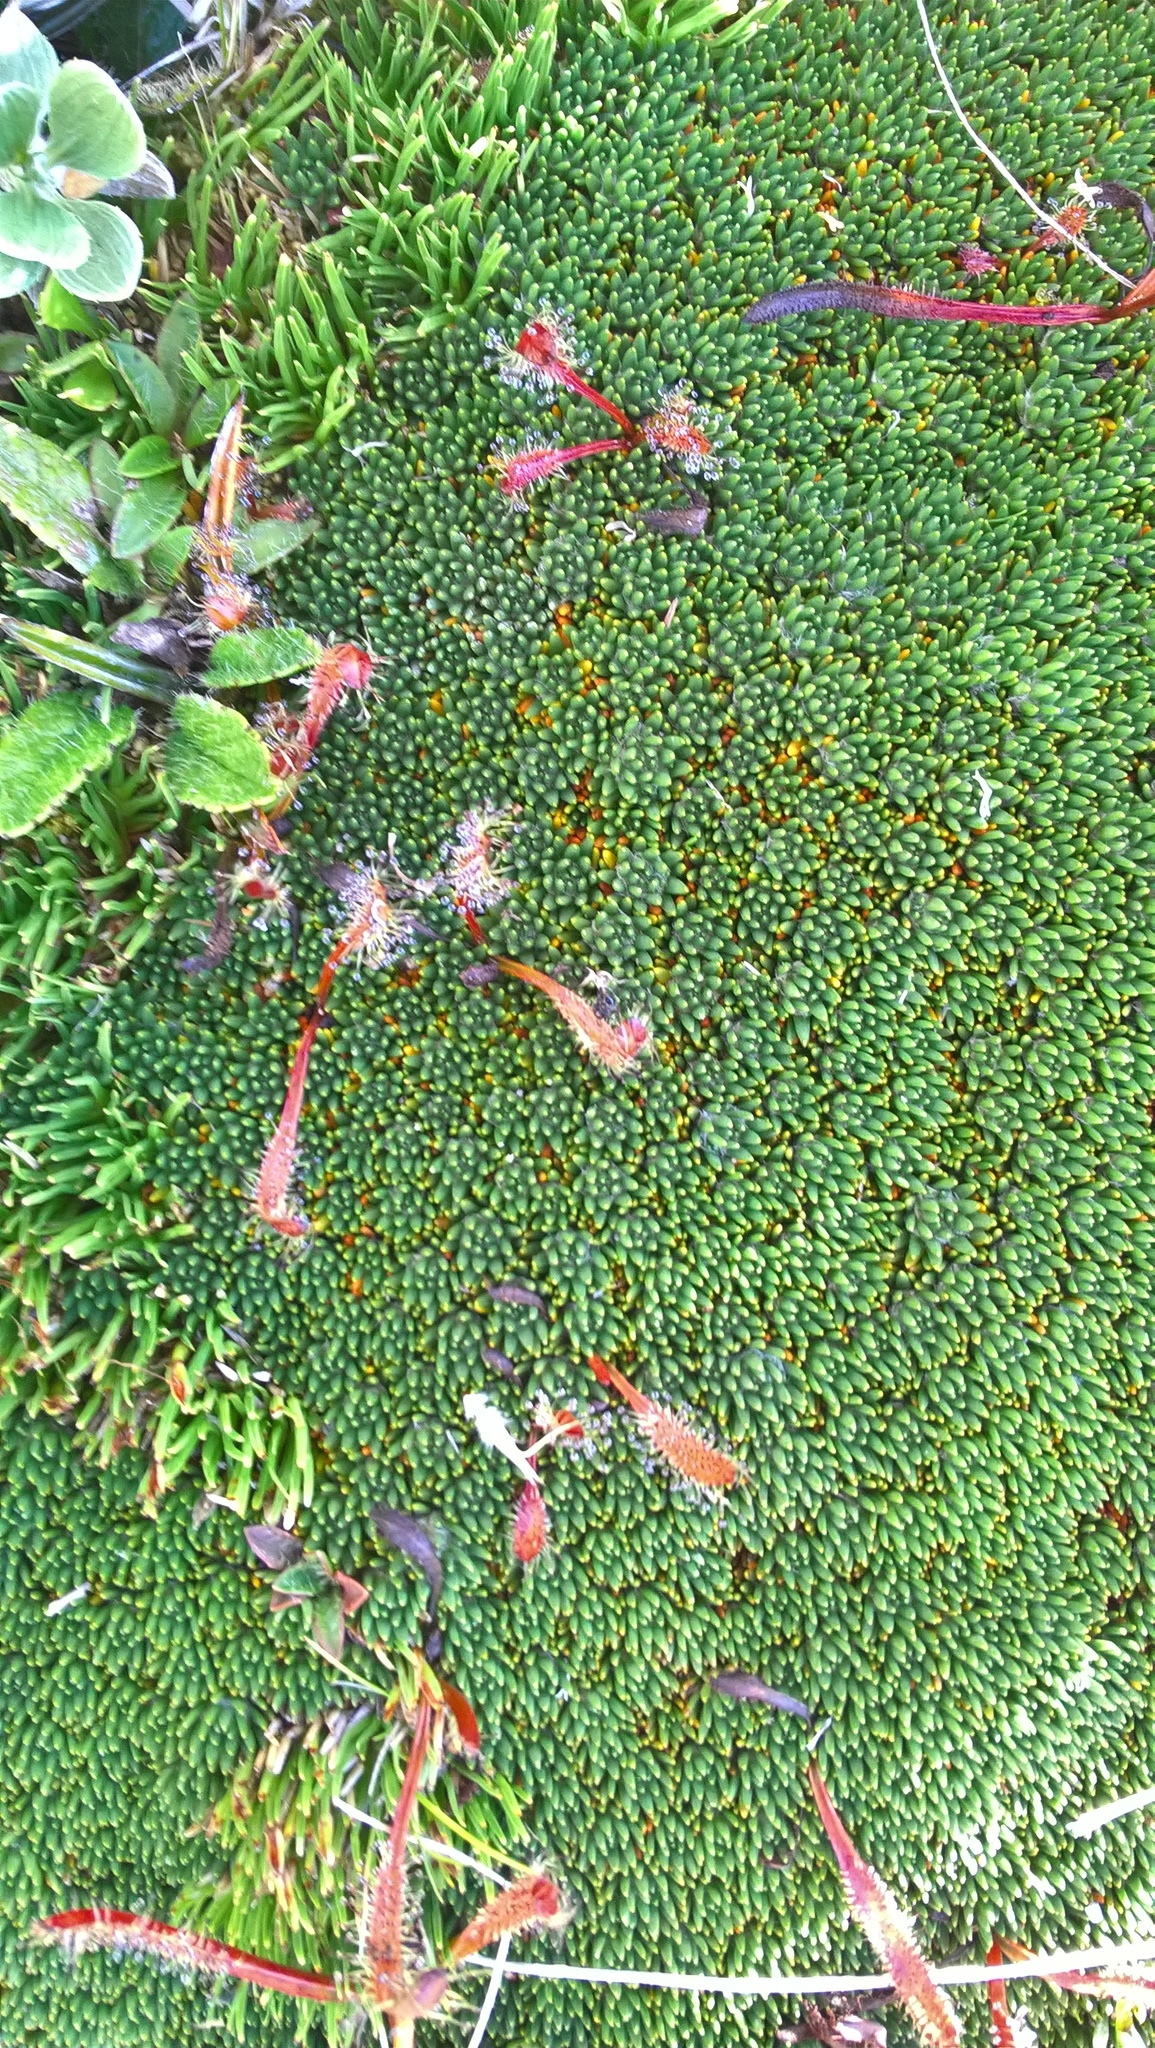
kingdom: Plantae
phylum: Tracheophyta
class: Magnoliopsida
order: Caryophyllales
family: Droseraceae
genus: Drosera
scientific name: Drosera arcturi
